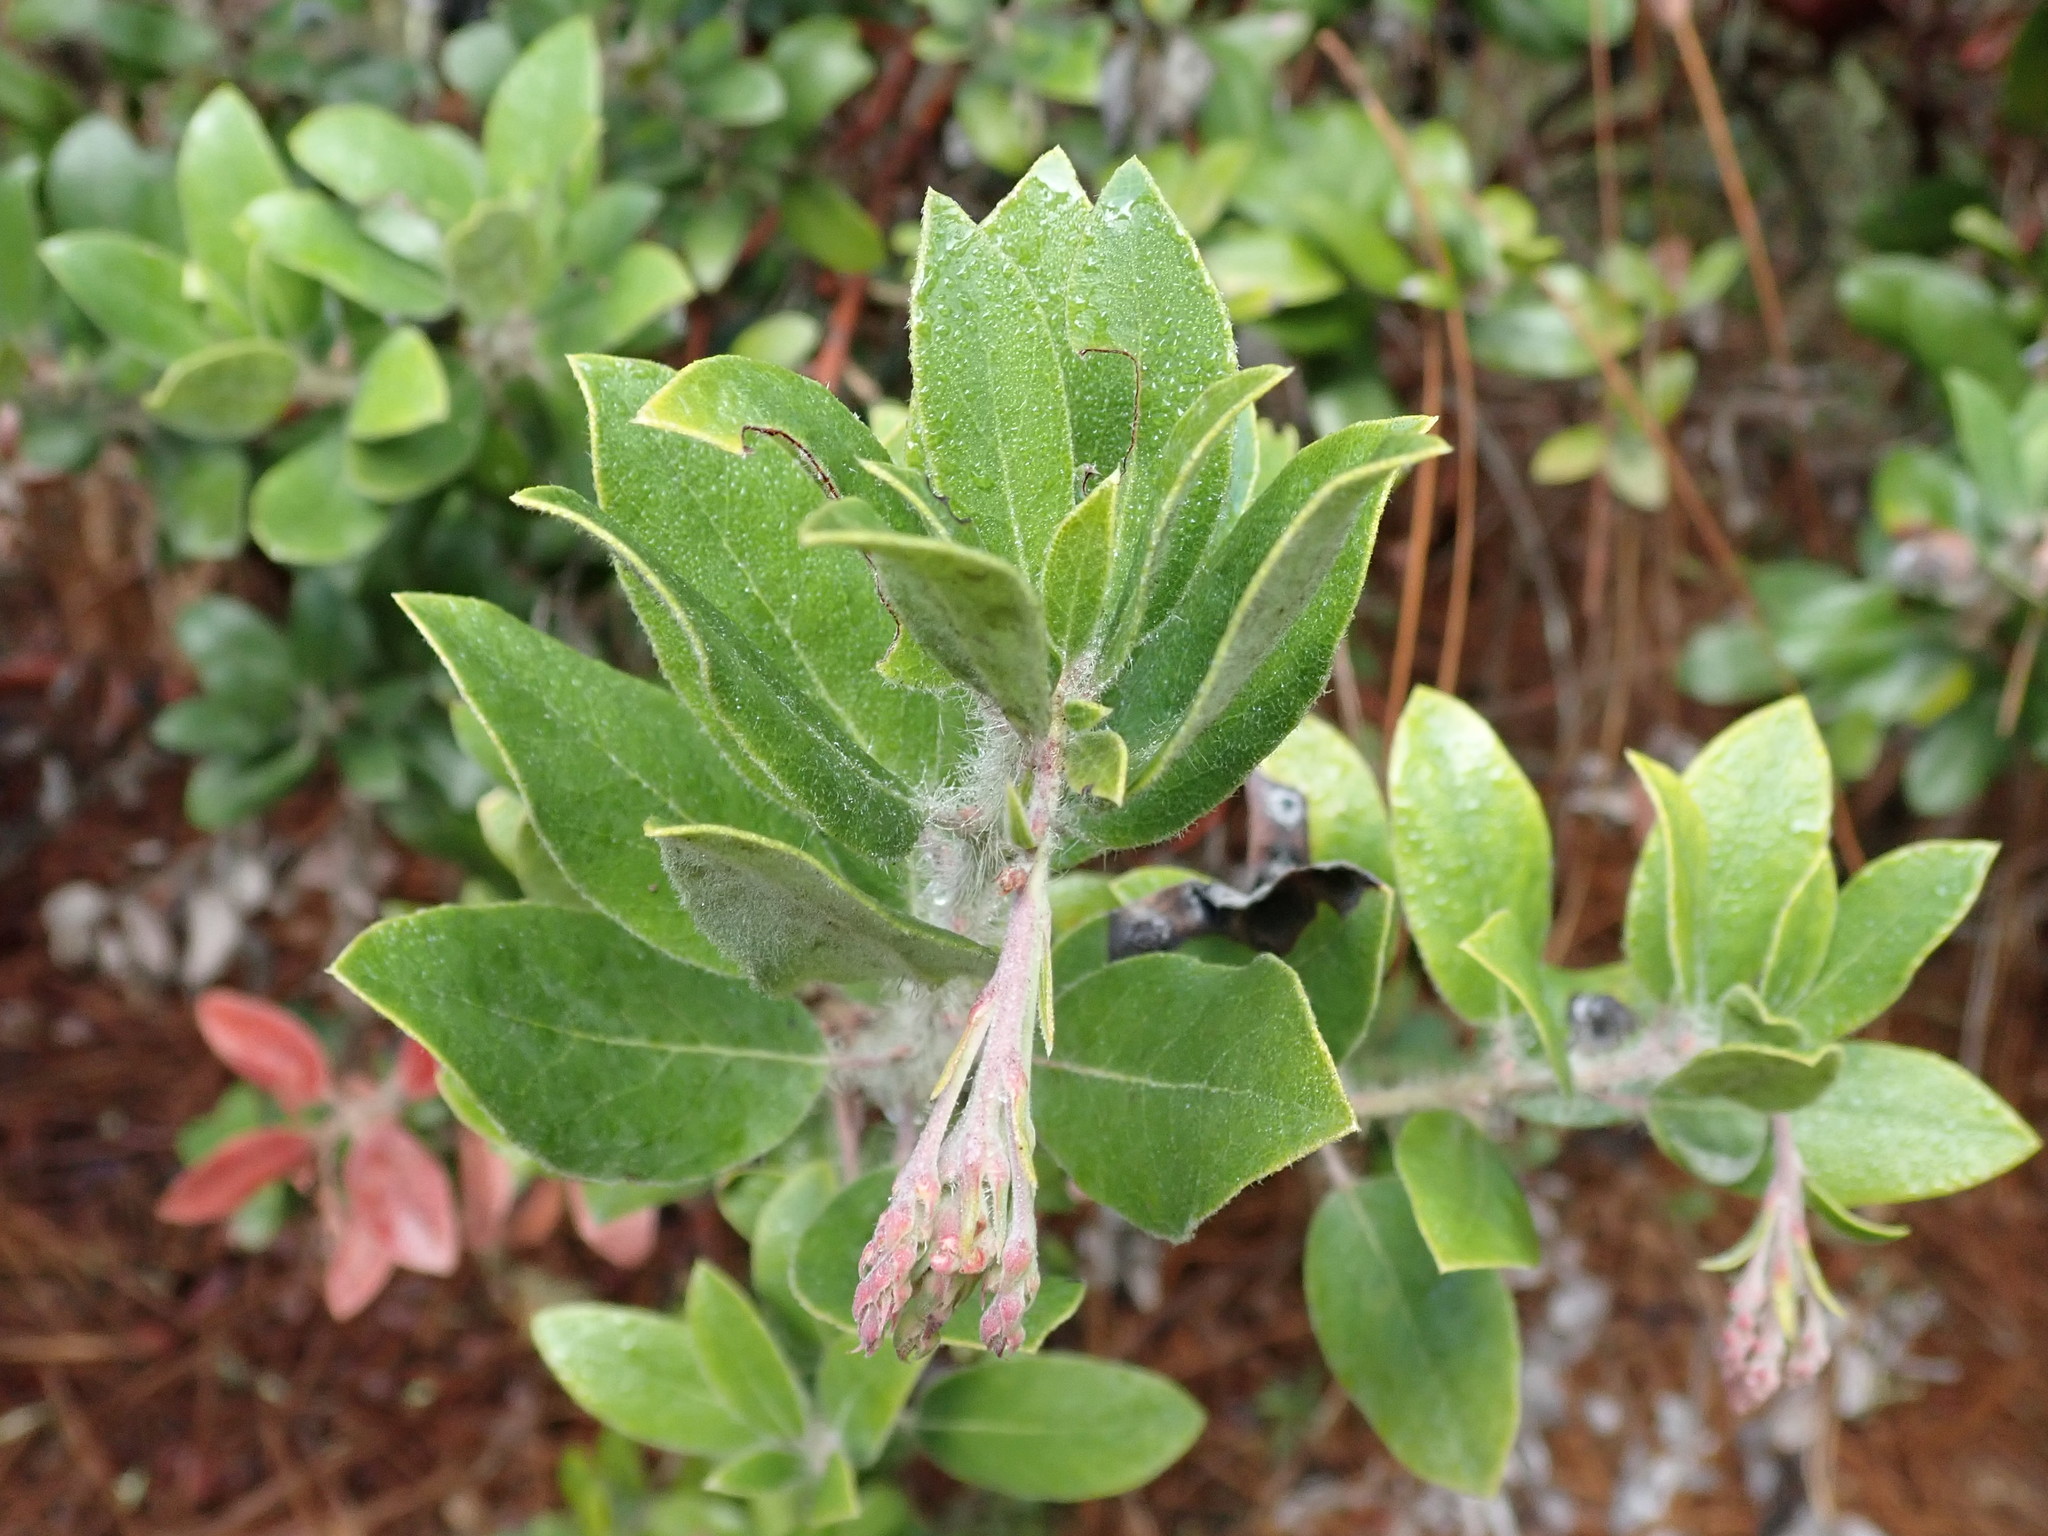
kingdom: Plantae
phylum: Tracheophyta
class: Magnoliopsida
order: Ericales
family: Ericaceae
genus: Arctostaphylos
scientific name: Arctostaphylos crustacea
